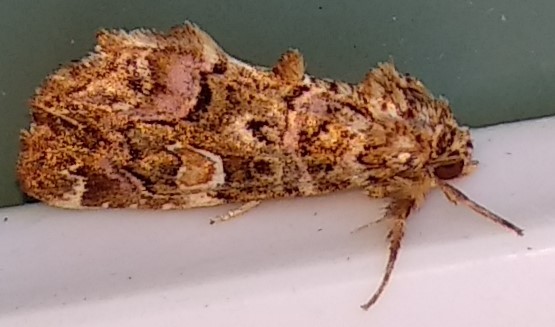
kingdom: Animalia
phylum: Arthropoda
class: Insecta
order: Lepidoptera
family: Noctuidae
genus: Callopistria
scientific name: Callopistria mollissima
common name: Pink-shaded fern moth
